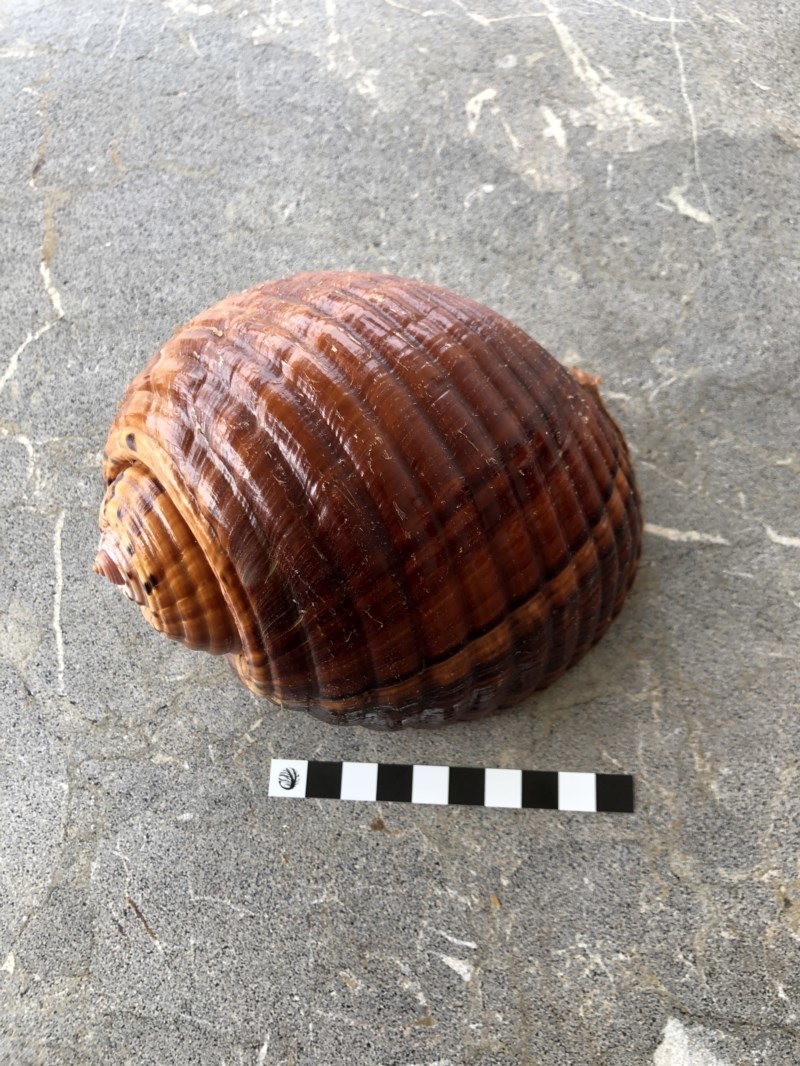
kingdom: Animalia
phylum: Mollusca
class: Gastropoda
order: Littorinimorpha
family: Tonnidae
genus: Tonna
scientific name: Tonna tankervillii
